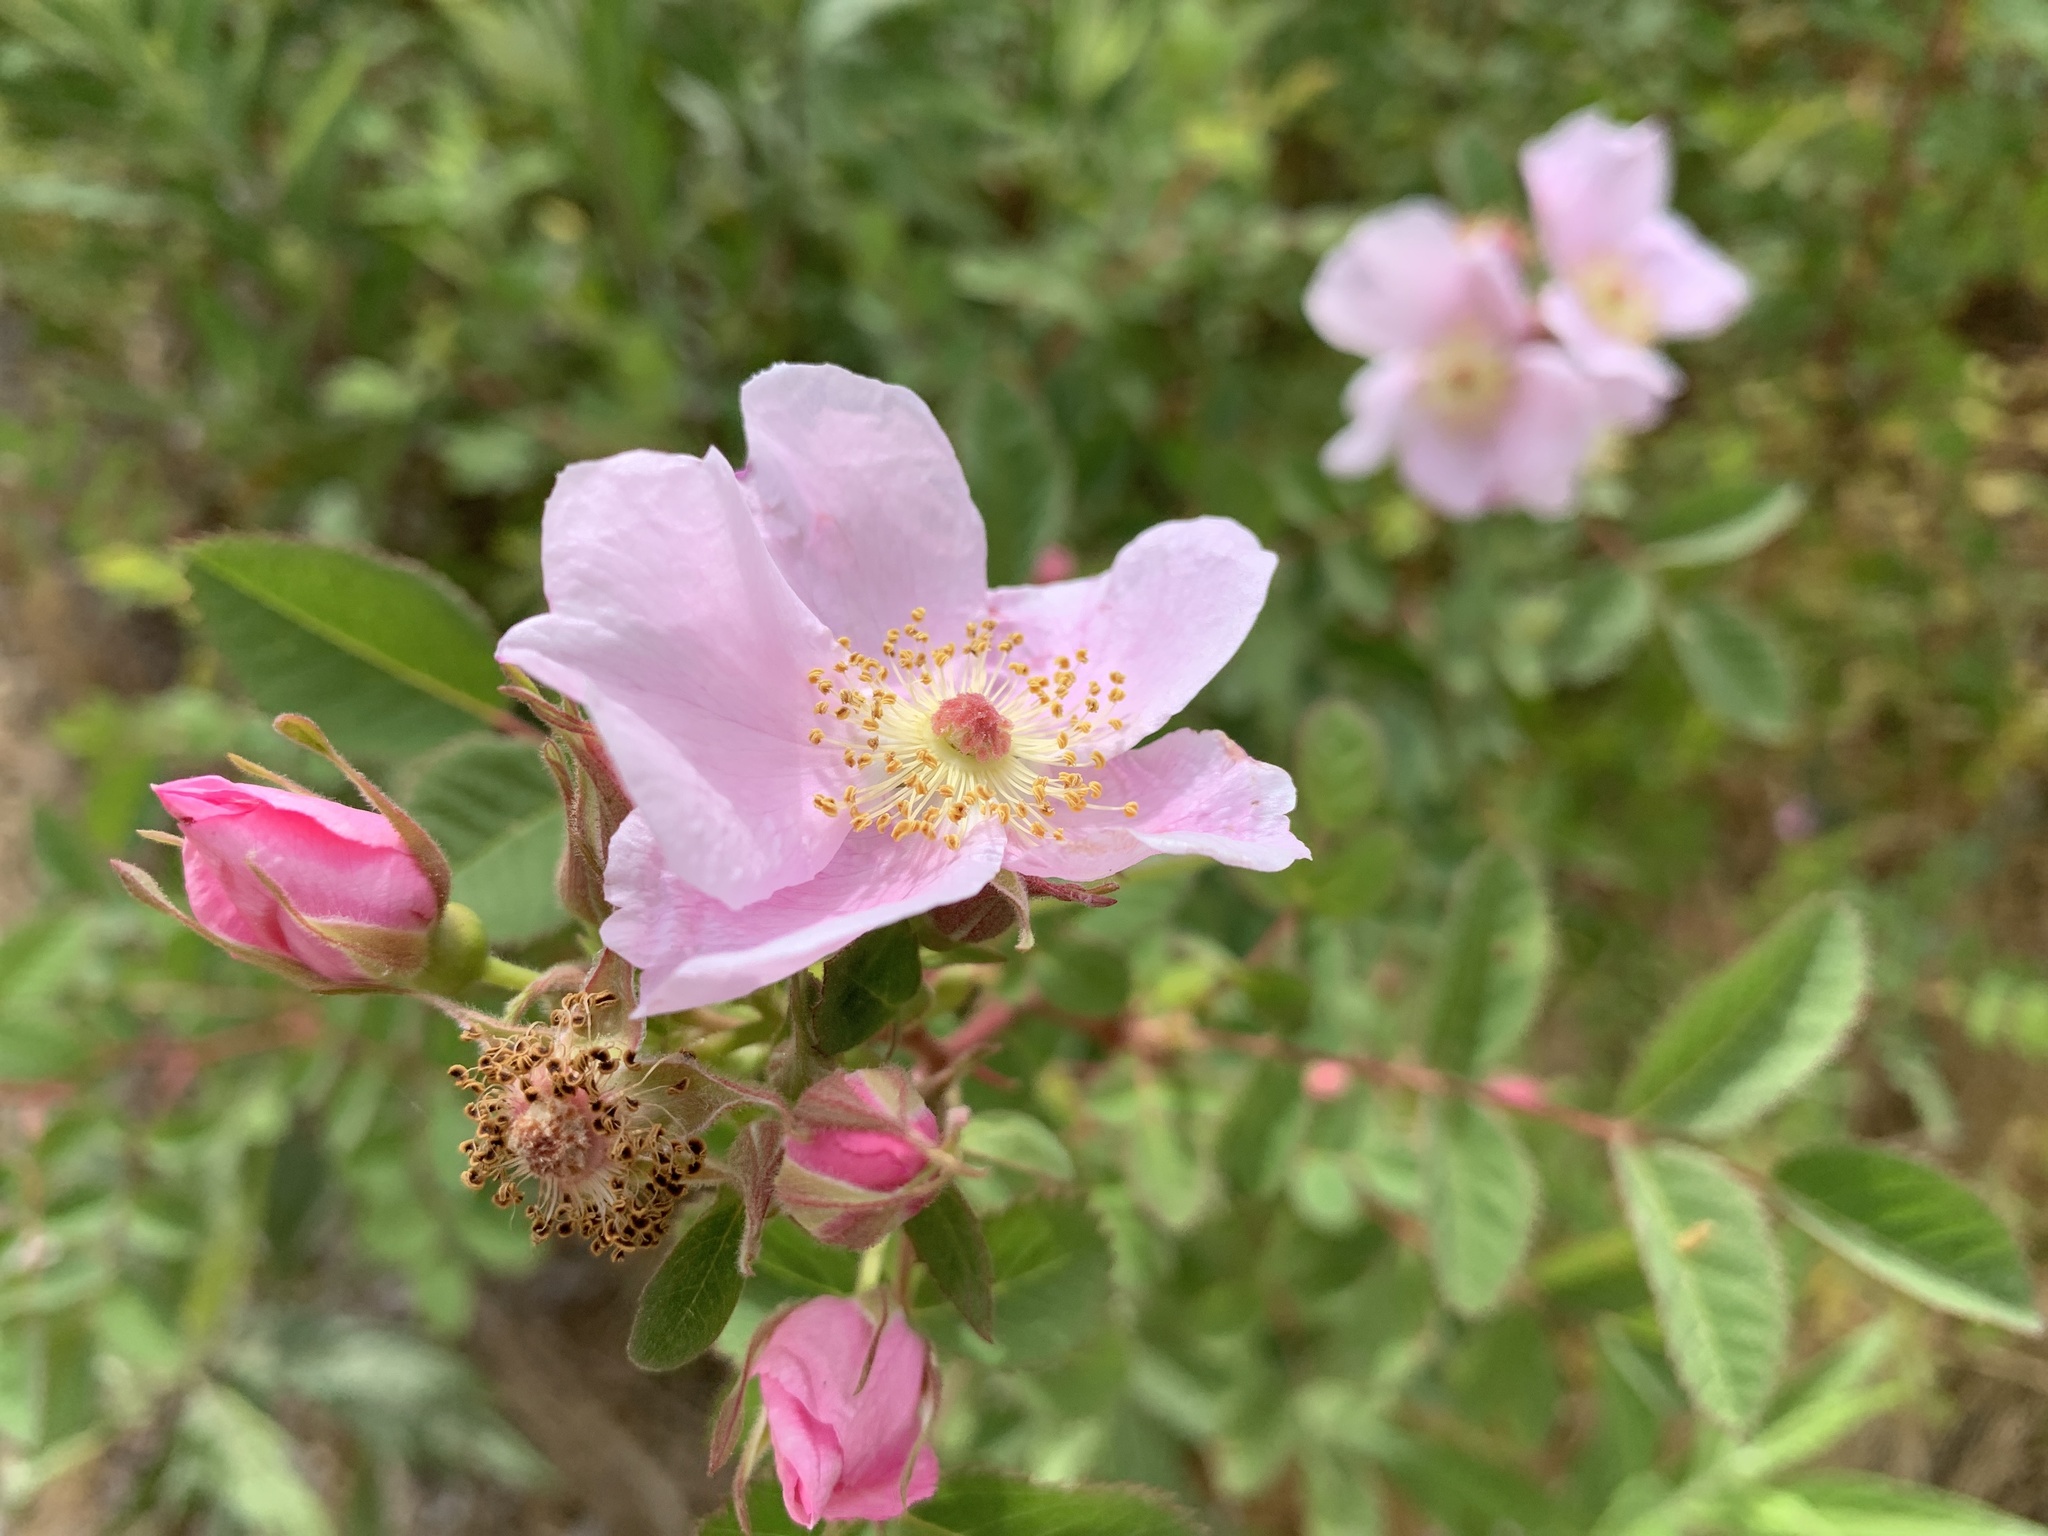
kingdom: Plantae
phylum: Tracheophyta
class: Magnoliopsida
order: Rosales
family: Rosaceae
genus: Rosa
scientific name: Rosa californica
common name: California rose
